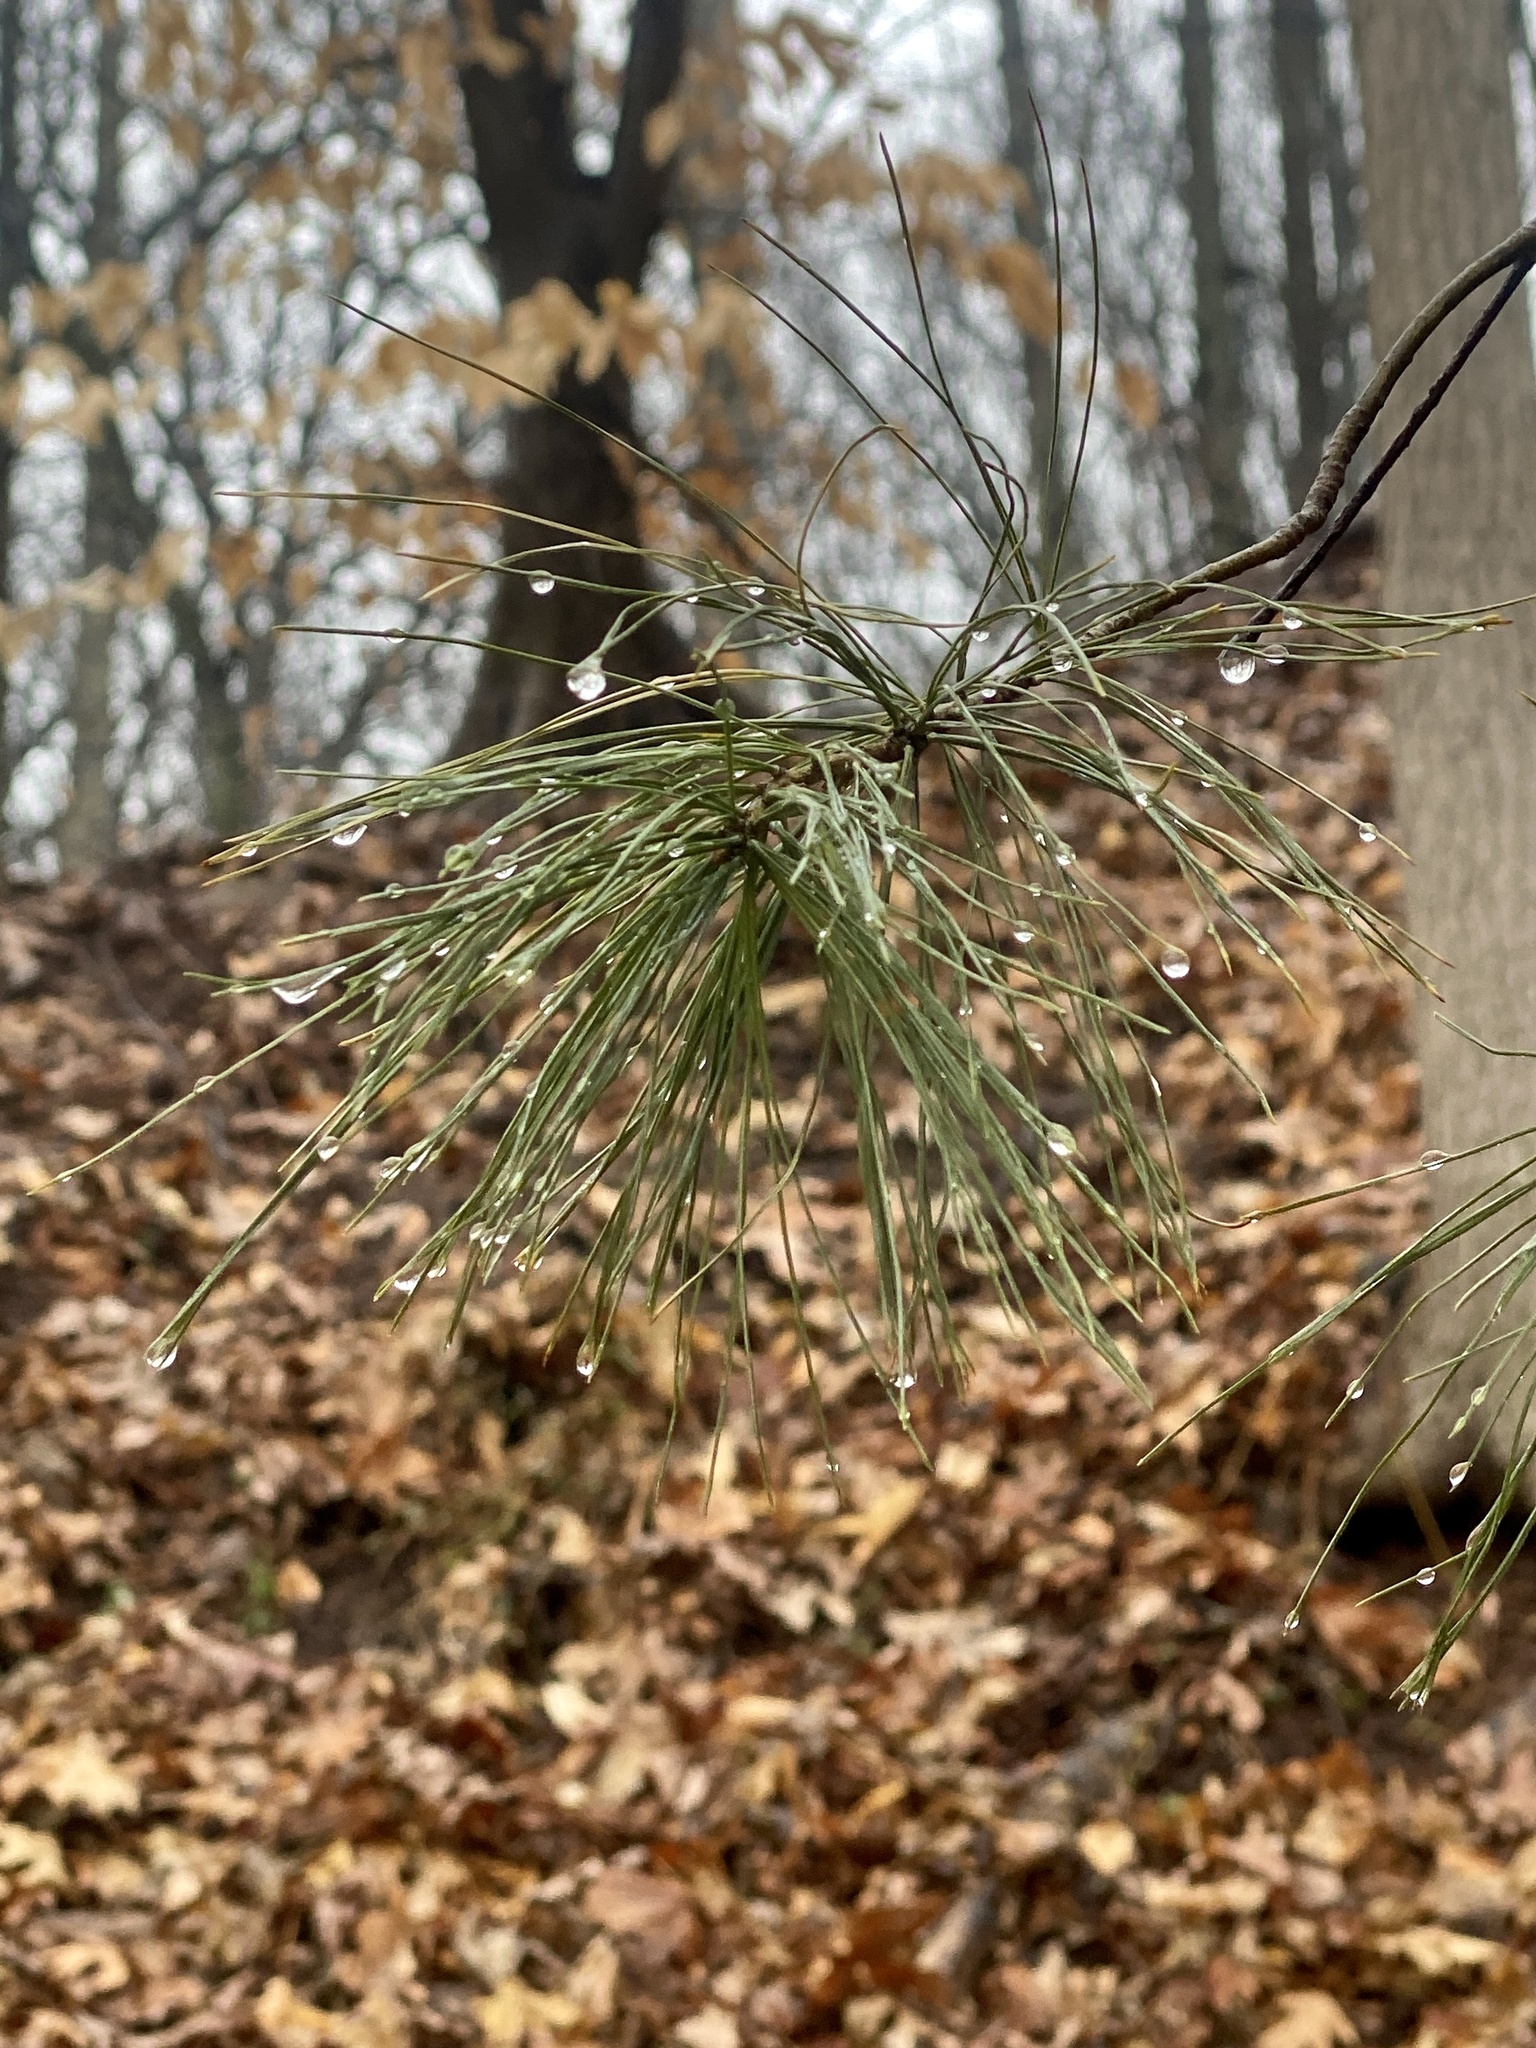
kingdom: Plantae
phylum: Tracheophyta
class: Pinopsida
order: Pinales
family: Pinaceae
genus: Pinus
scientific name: Pinus strobus
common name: Weymouth pine
